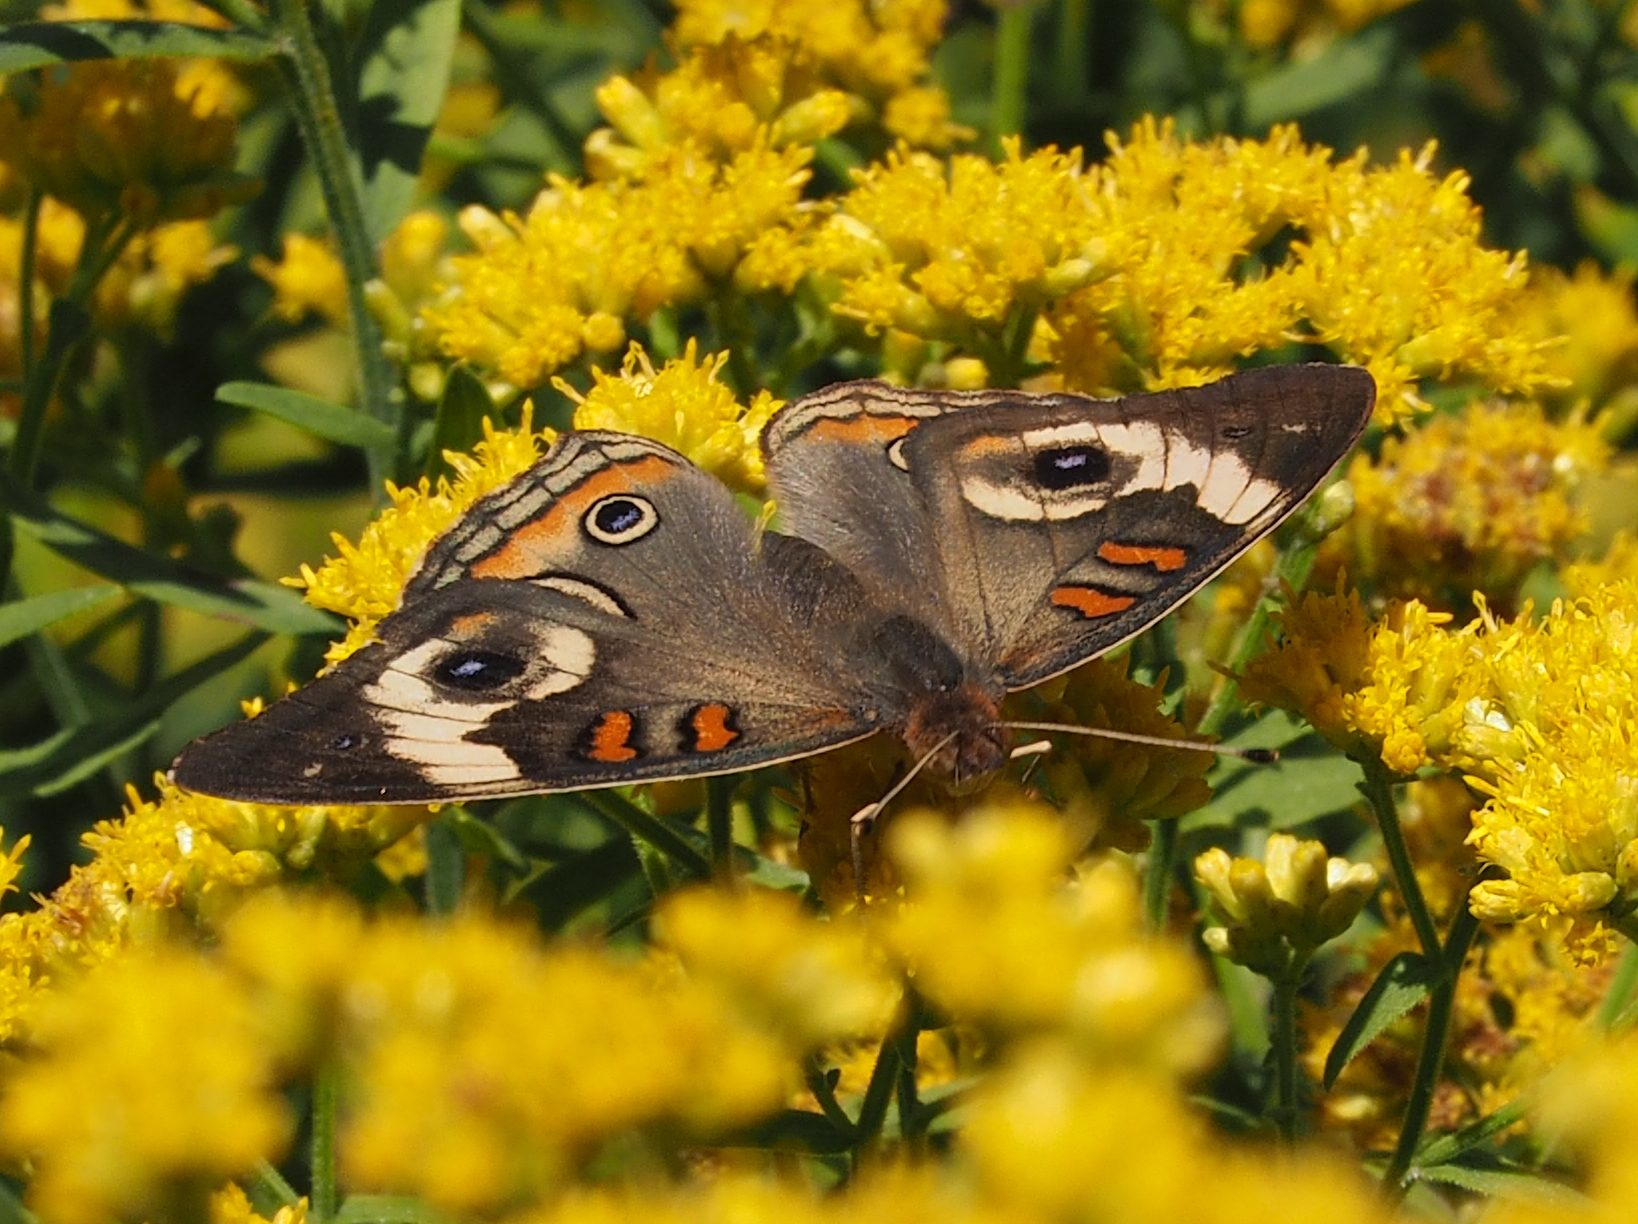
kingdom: Animalia
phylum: Arthropoda
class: Insecta
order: Lepidoptera
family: Nymphalidae
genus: Junonia
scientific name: Junonia coenia
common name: Common buckeye
